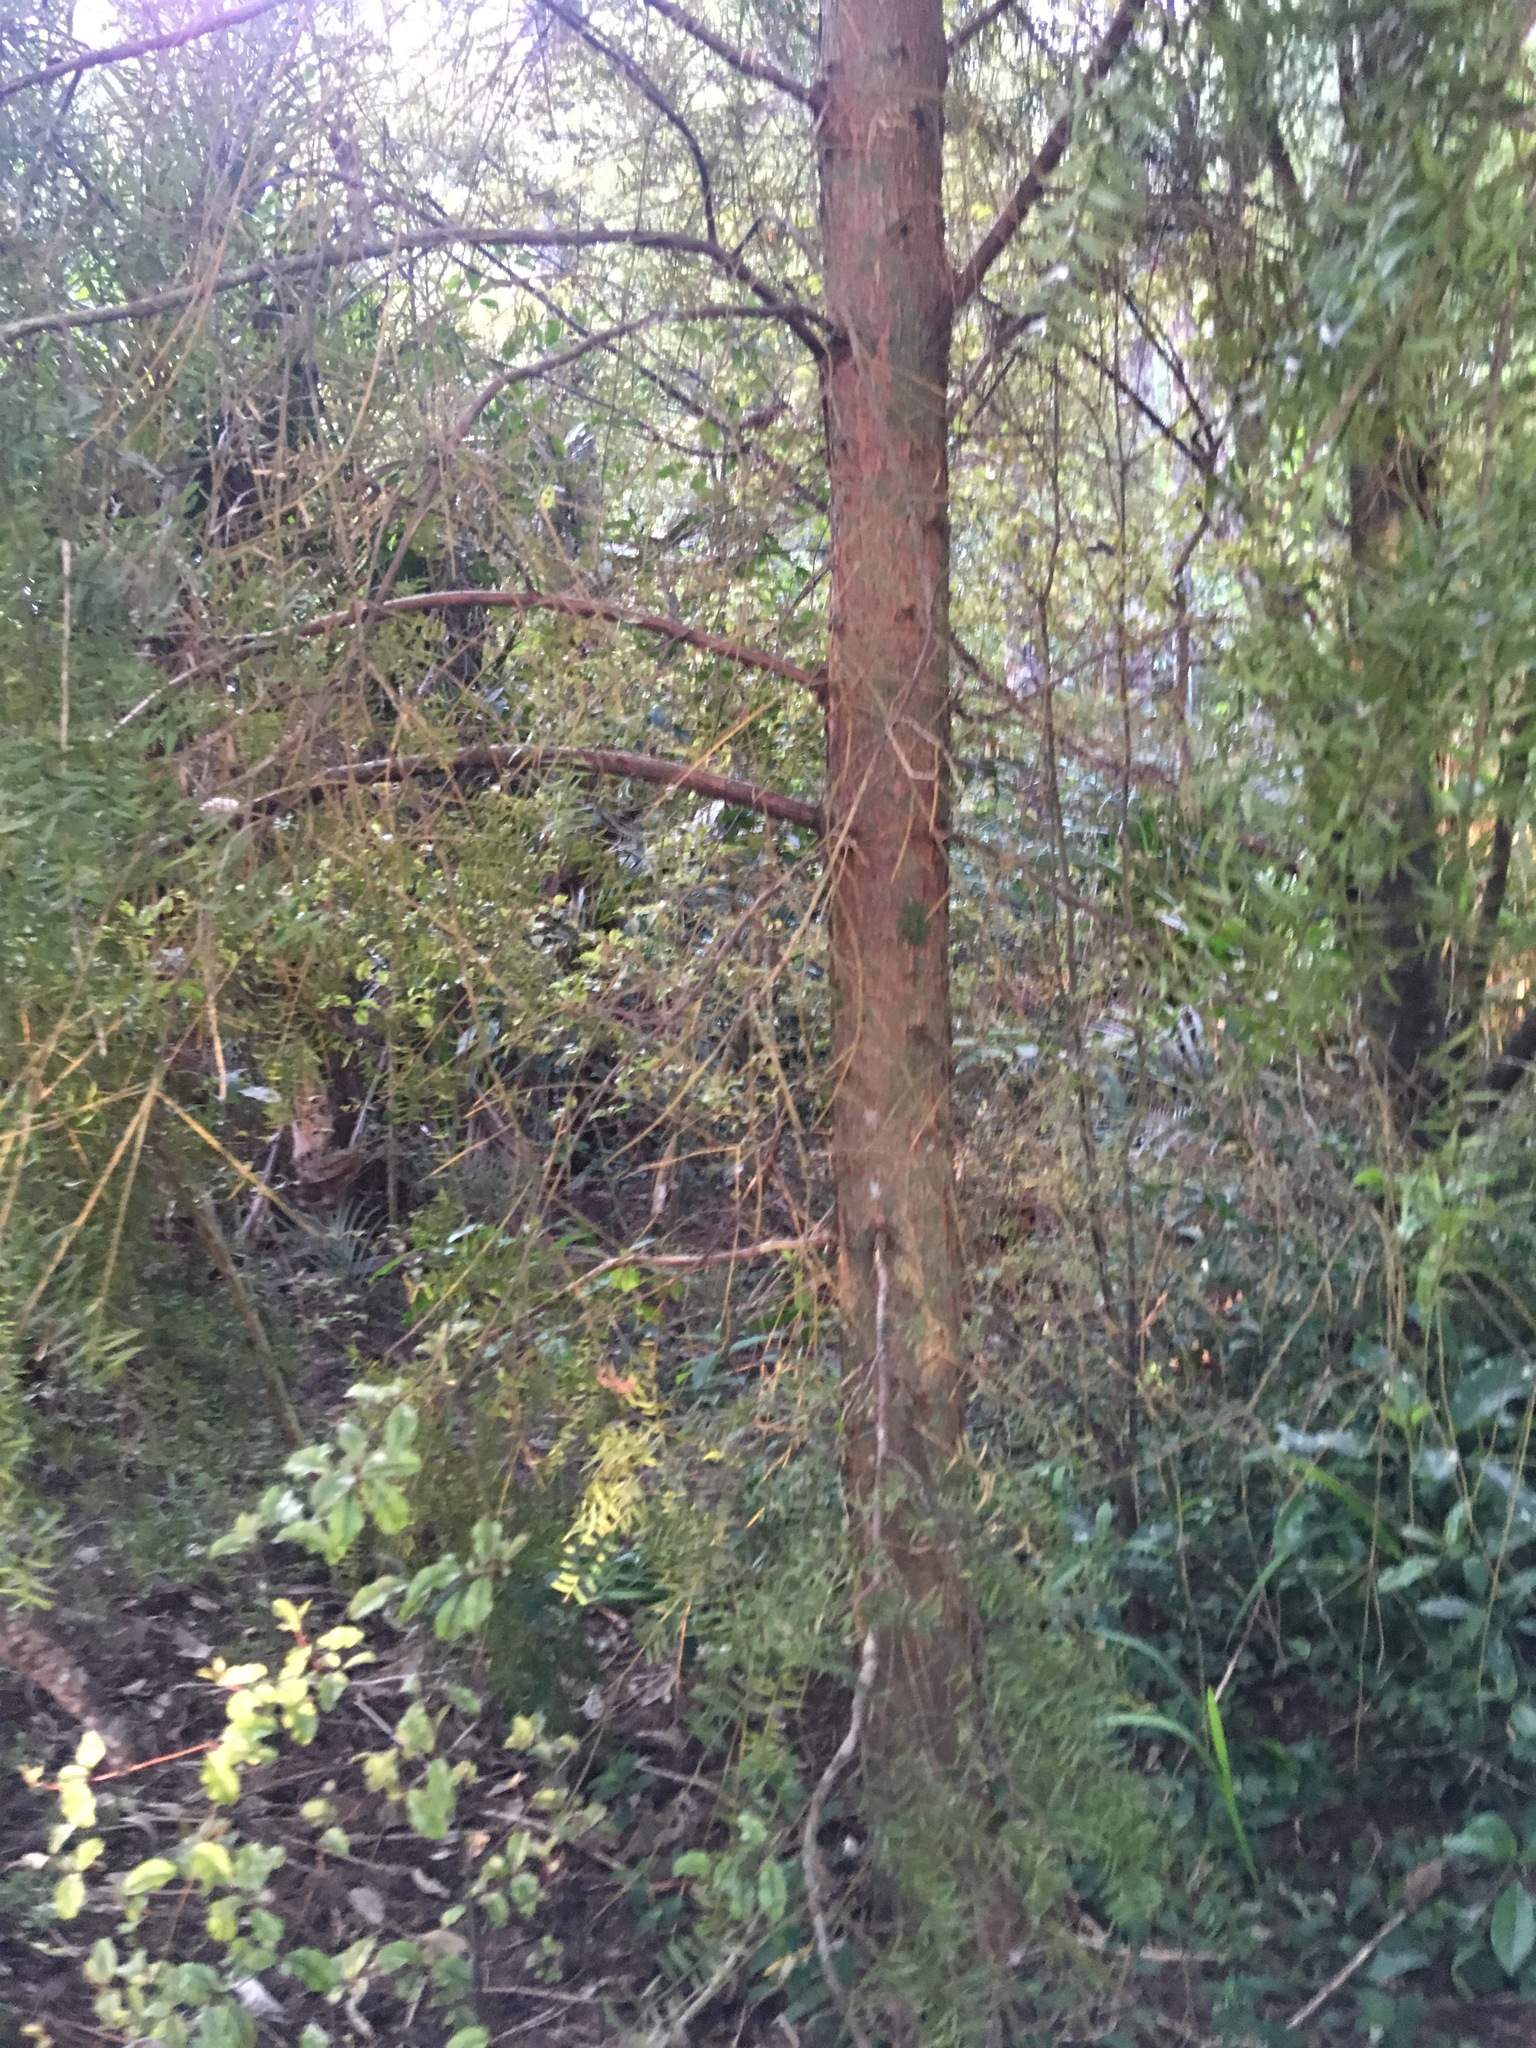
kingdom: Plantae
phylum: Tracheophyta
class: Pinopsida
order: Pinales
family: Podocarpaceae
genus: Podocarpus
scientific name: Podocarpus totara
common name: Totara
